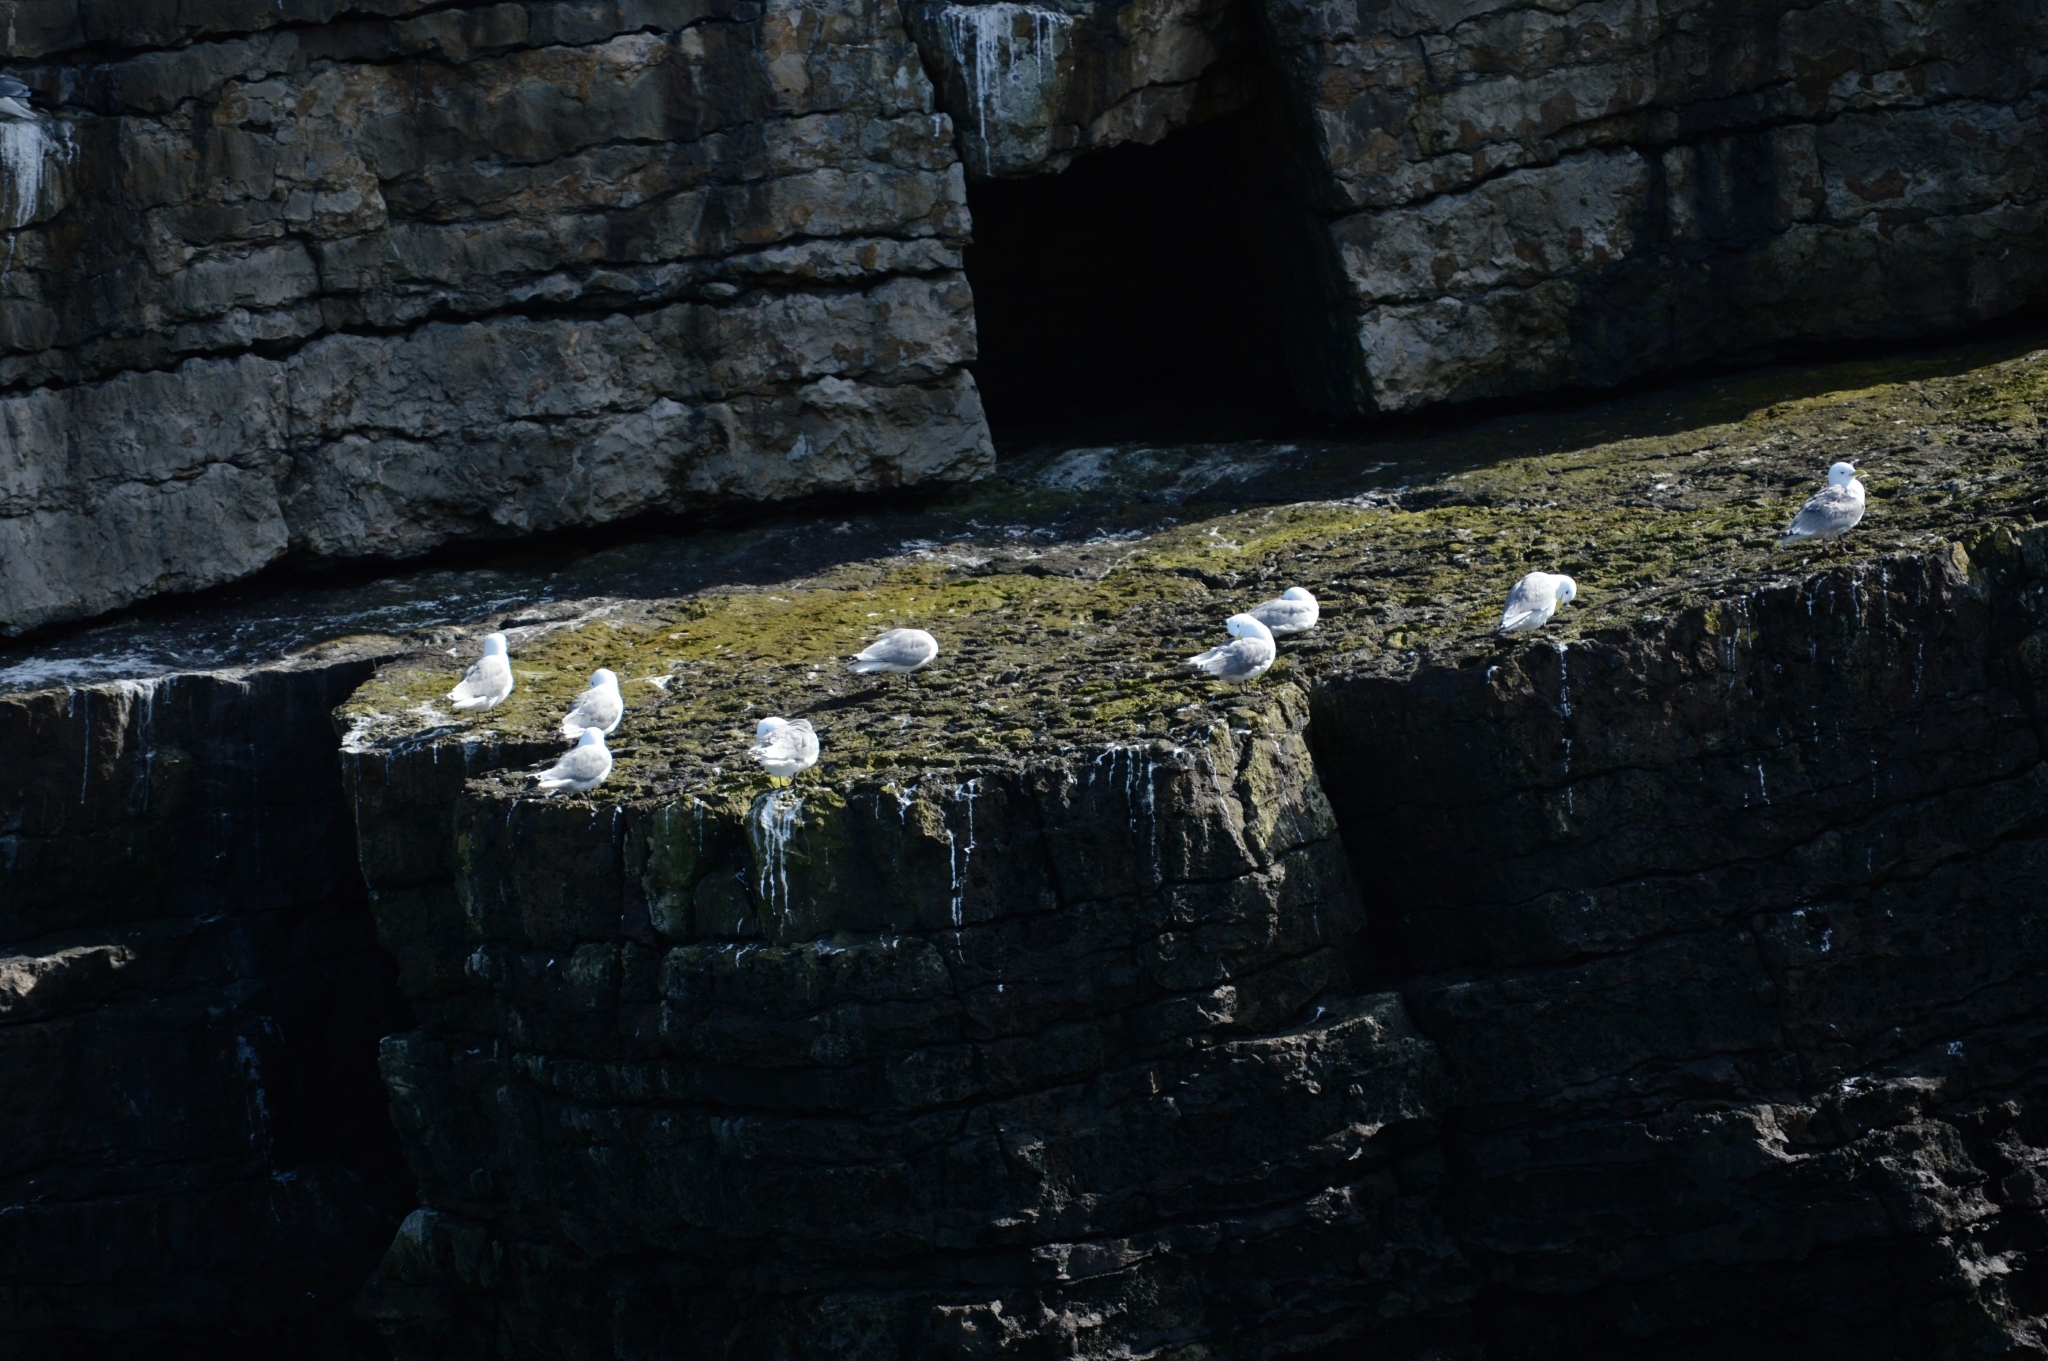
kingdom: Animalia
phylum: Chordata
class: Aves
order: Charadriiformes
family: Laridae
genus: Rissa
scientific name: Rissa tridactyla
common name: Black-legged kittiwake
